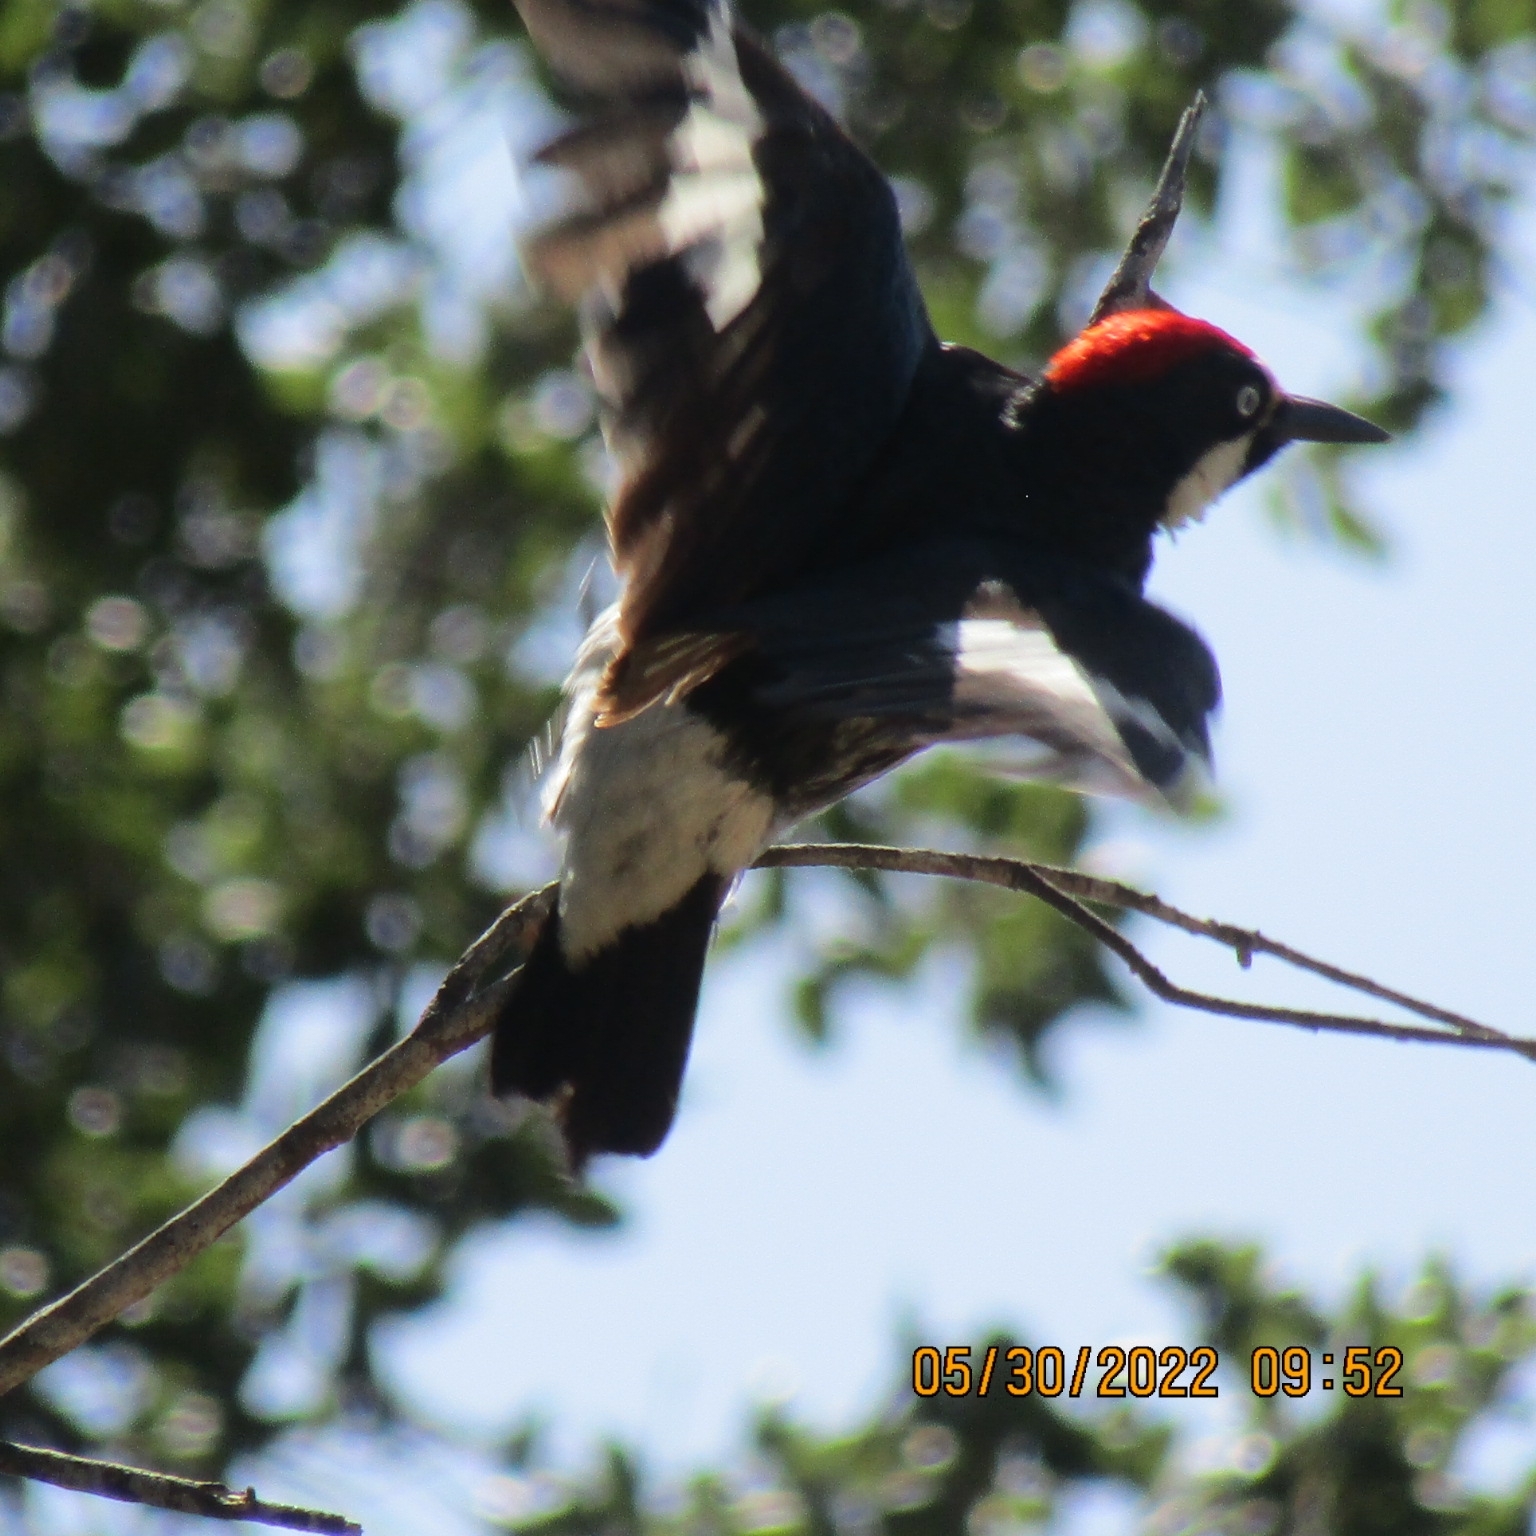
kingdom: Animalia
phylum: Chordata
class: Aves
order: Piciformes
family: Picidae
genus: Melanerpes
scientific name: Melanerpes formicivorus
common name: Acorn woodpecker
